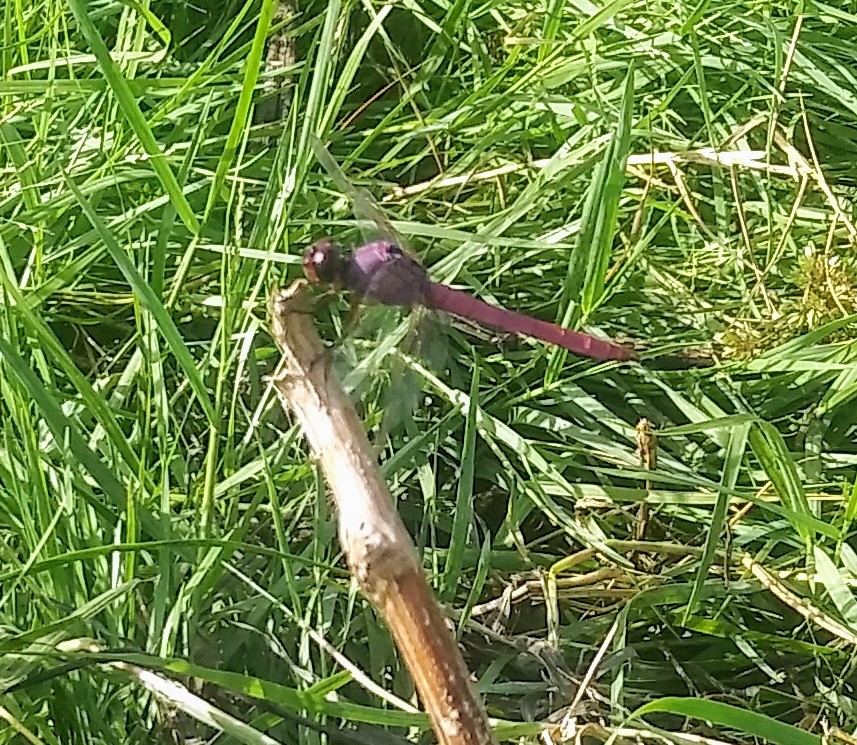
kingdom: Animalia
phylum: Arthropoda
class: Insecta
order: Odonata
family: Libellulidae
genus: Orthemis
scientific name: Orthemis ferruginea
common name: Roseate skimmer
